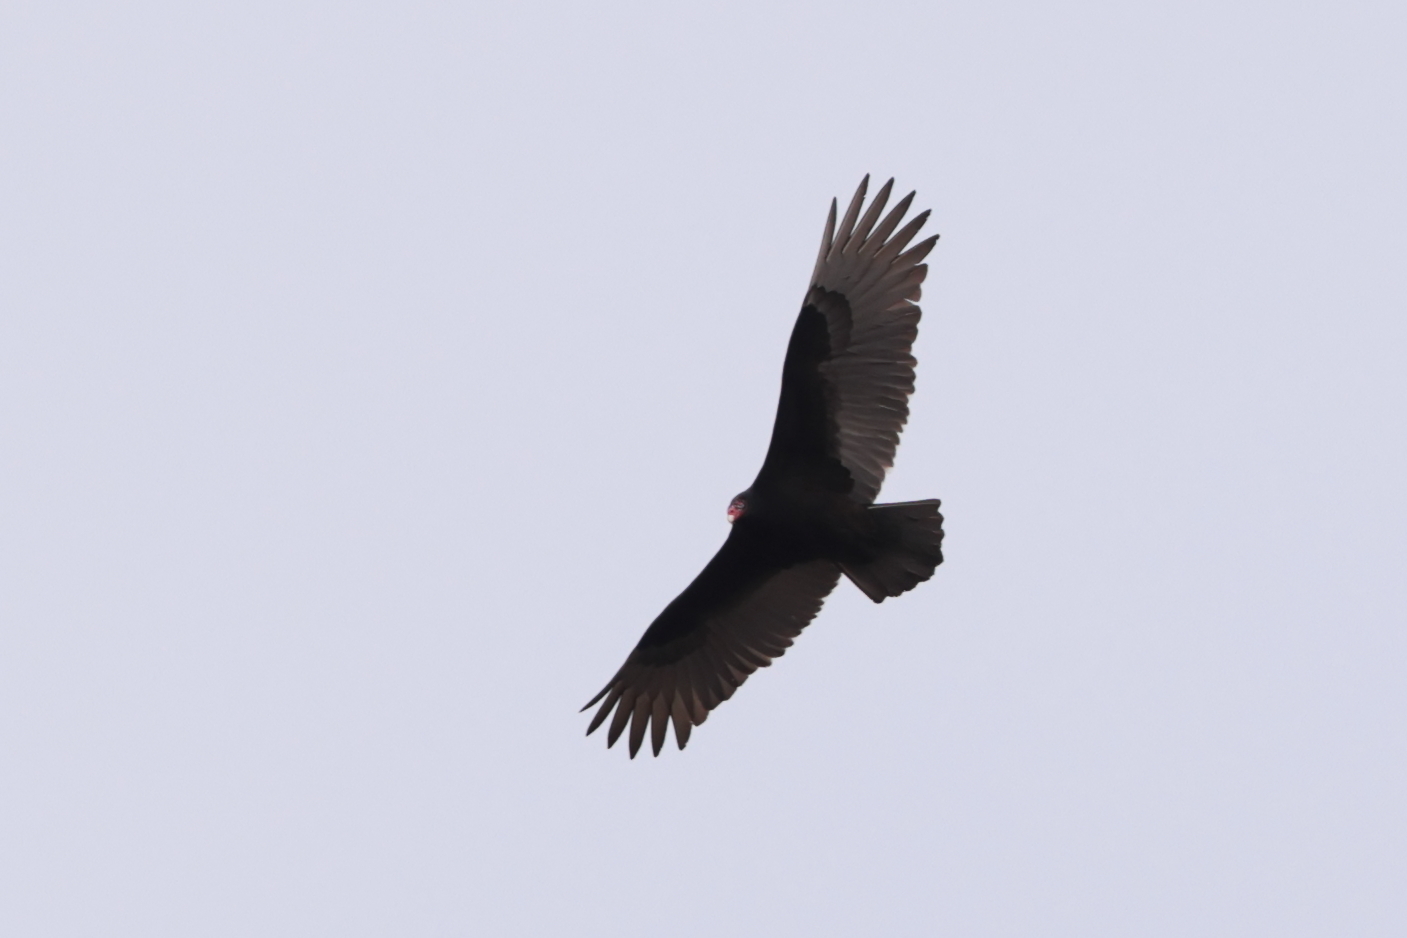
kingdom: Animalia
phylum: Chordata
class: Aves
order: Accipitriformes
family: Cathartidae
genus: Cathartes
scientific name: Cathartes aura
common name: Turkey vulture
